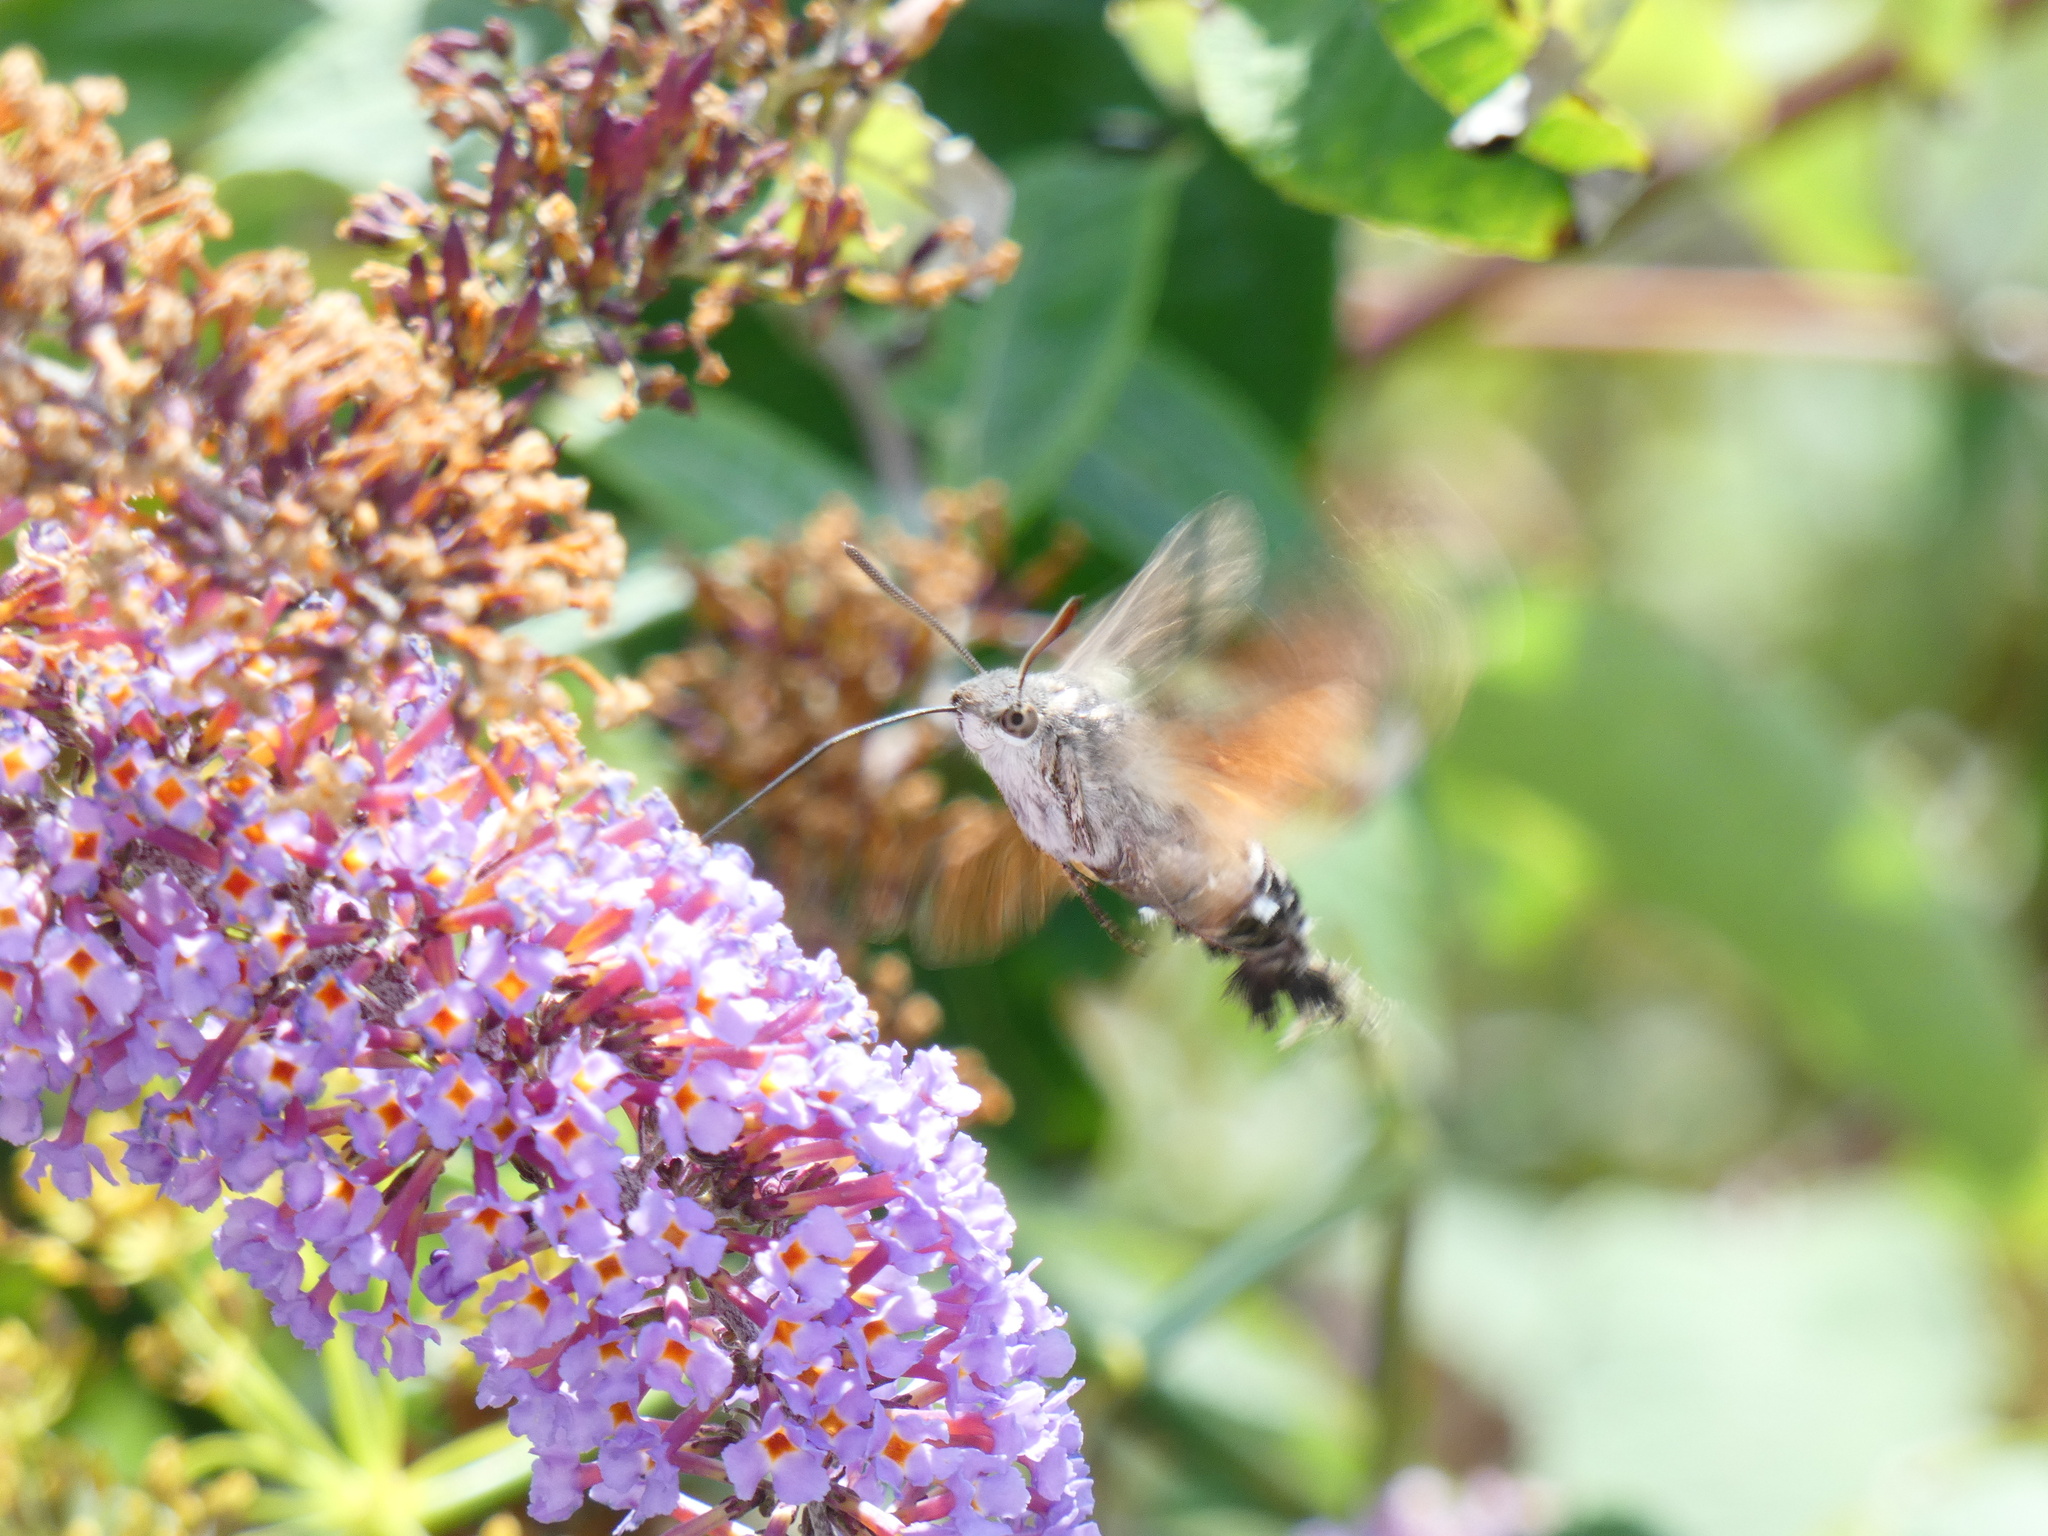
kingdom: Animalia
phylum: Arthropoda
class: Insecta
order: Lepidoptera
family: Sphingidae
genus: Macroglossum
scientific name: Macroglossum stellatarum
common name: Humming-bird hawk-moth
